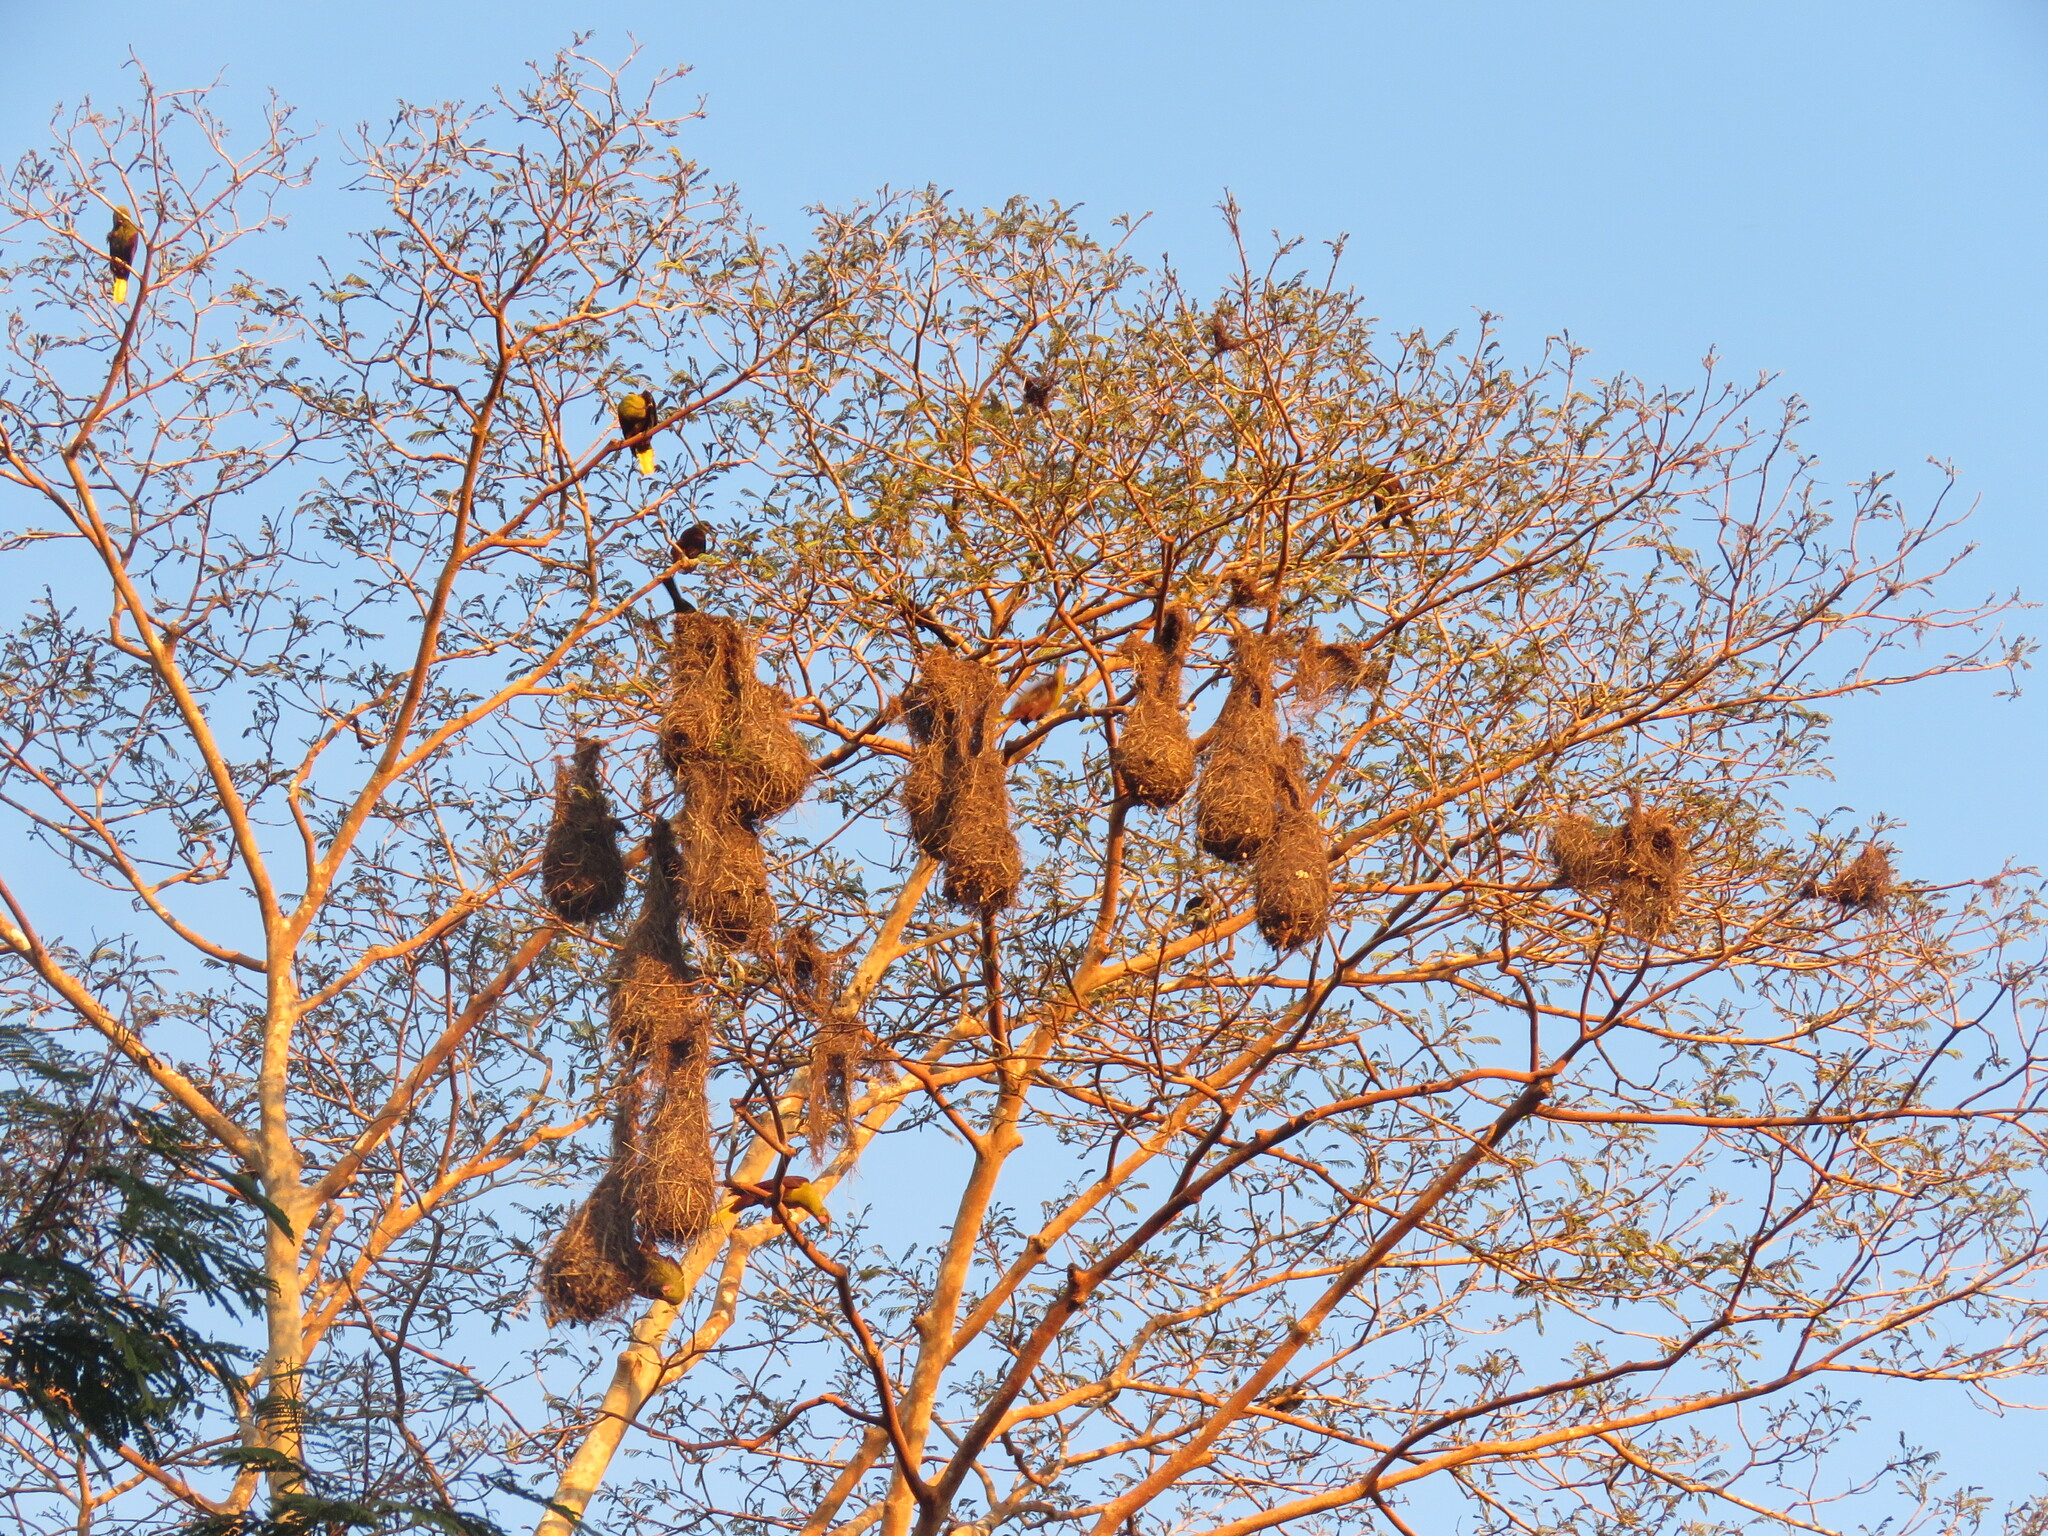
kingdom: Animalia
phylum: Chordata
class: Aves
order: Passeriformes
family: Icteridae
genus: Psarocolius
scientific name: Psarocolius bifasciatus
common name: Olive oropendola
